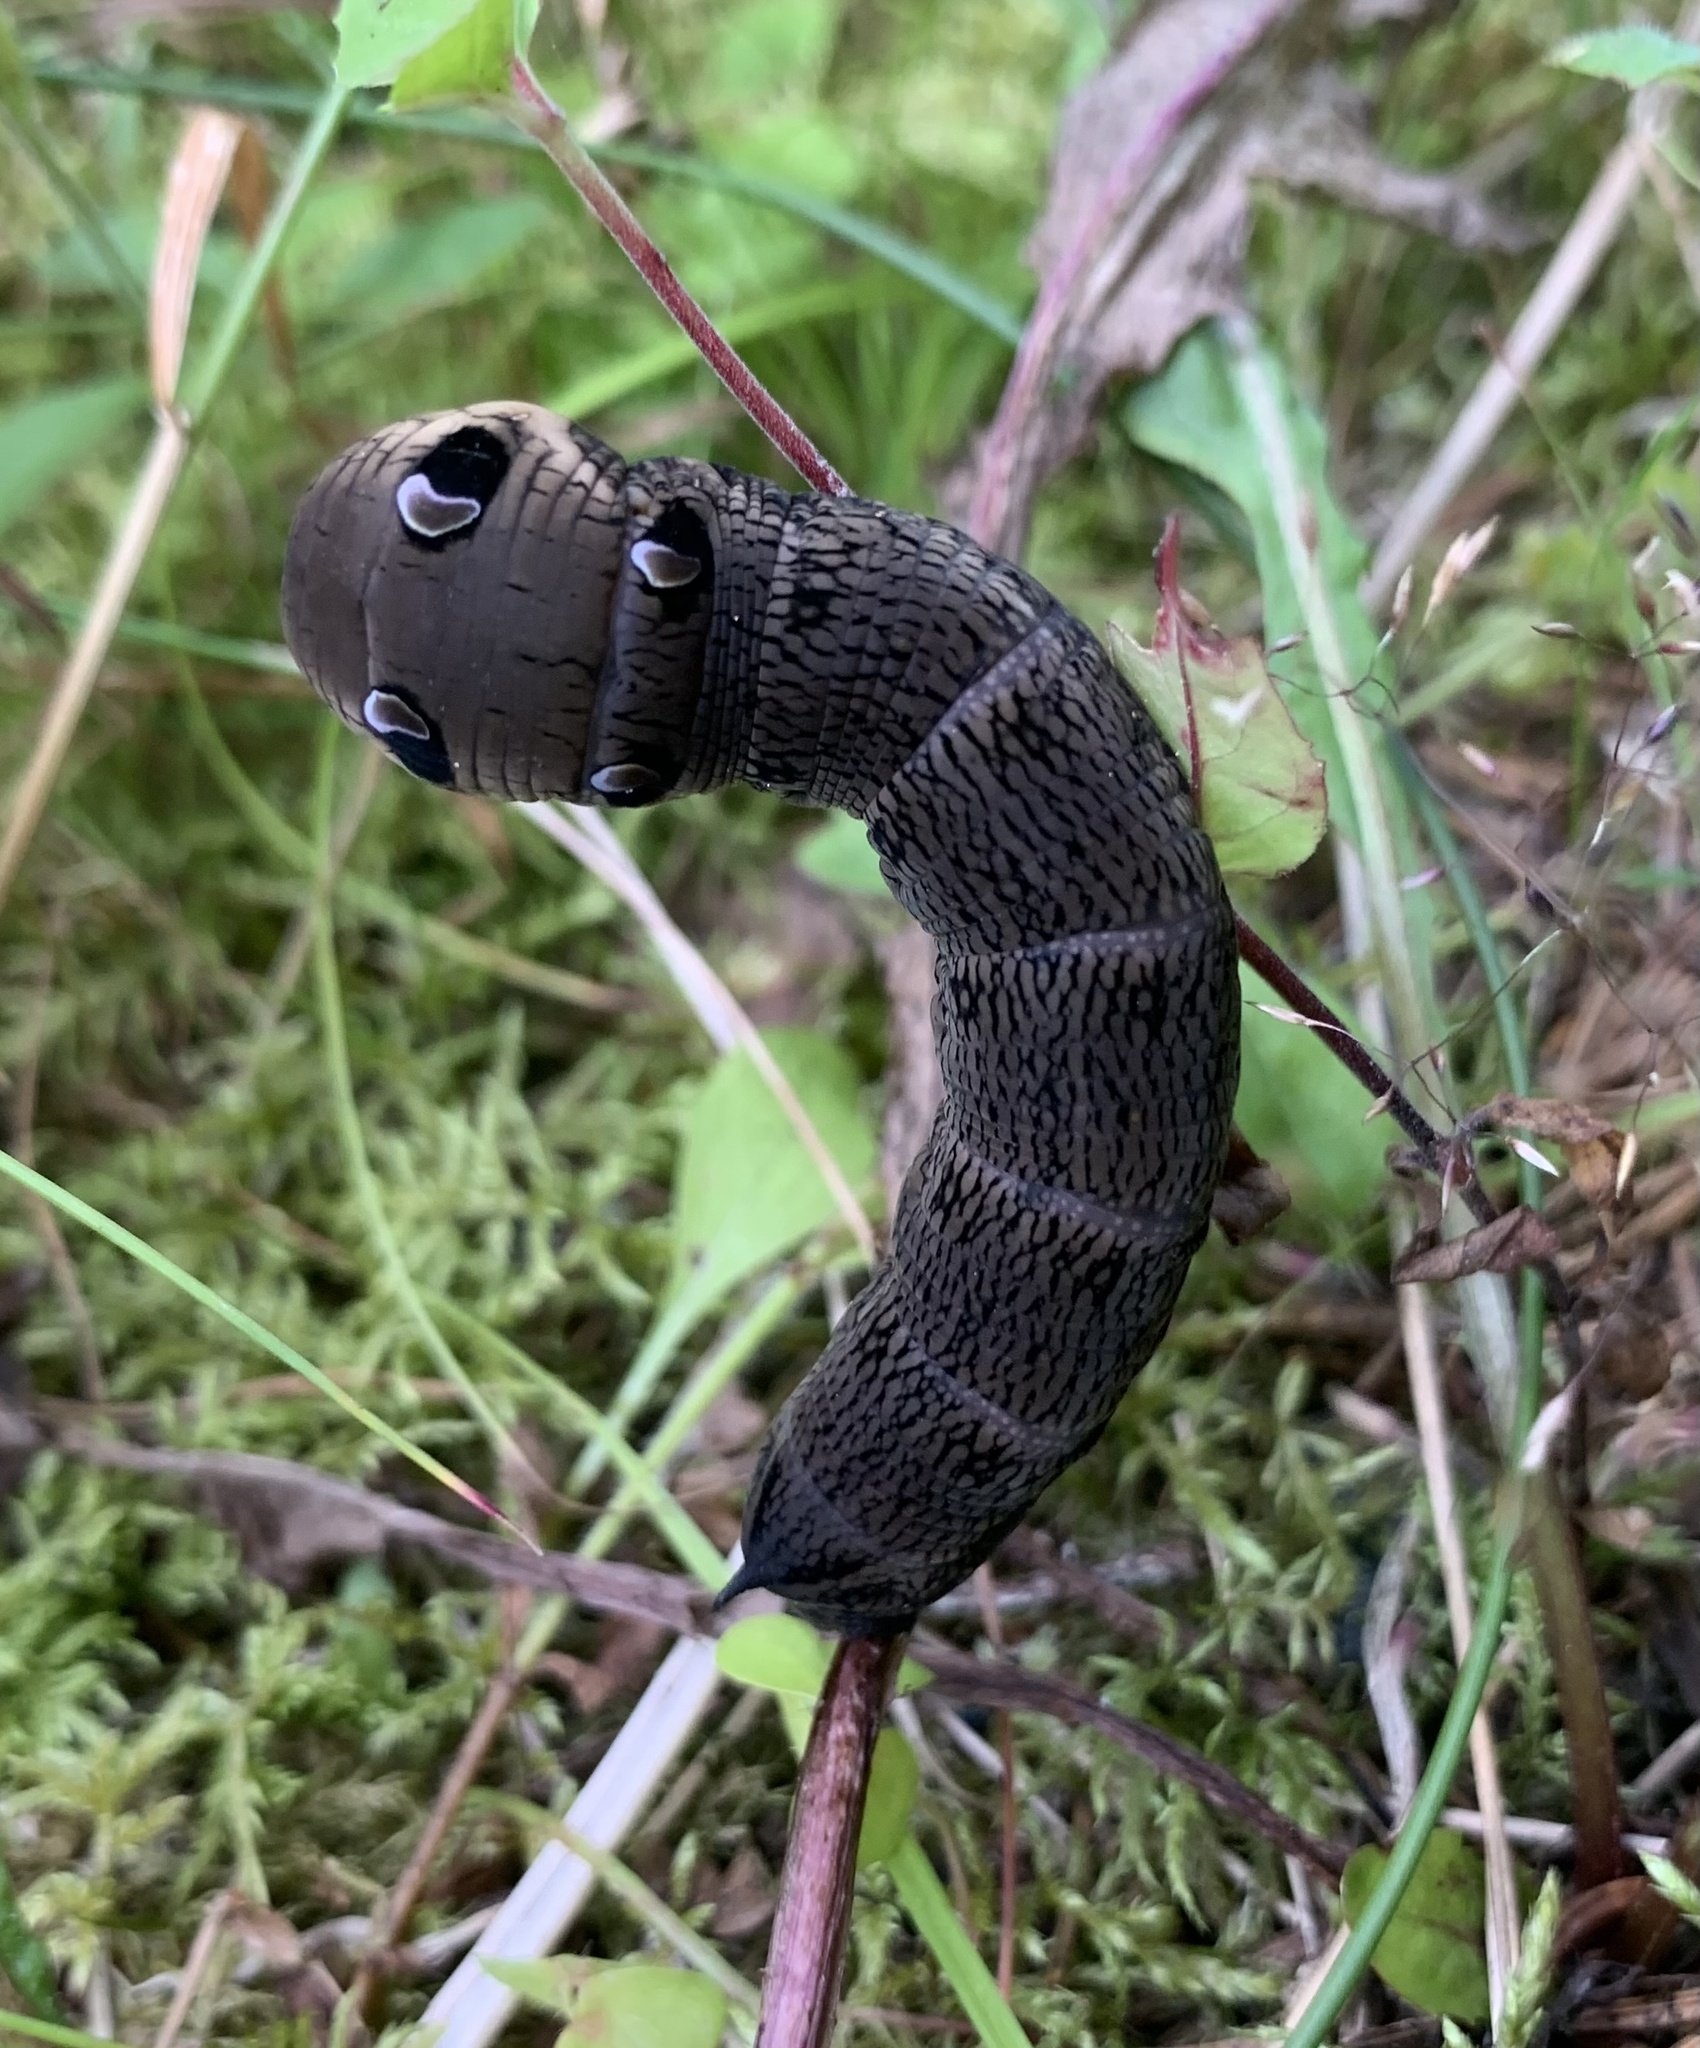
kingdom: Animalia
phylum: Arthropoda
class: Insecta
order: Lepidoptera
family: Sphingidae
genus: Deilephila
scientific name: Deilephila elpenor
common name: Elephant hawk-moth
